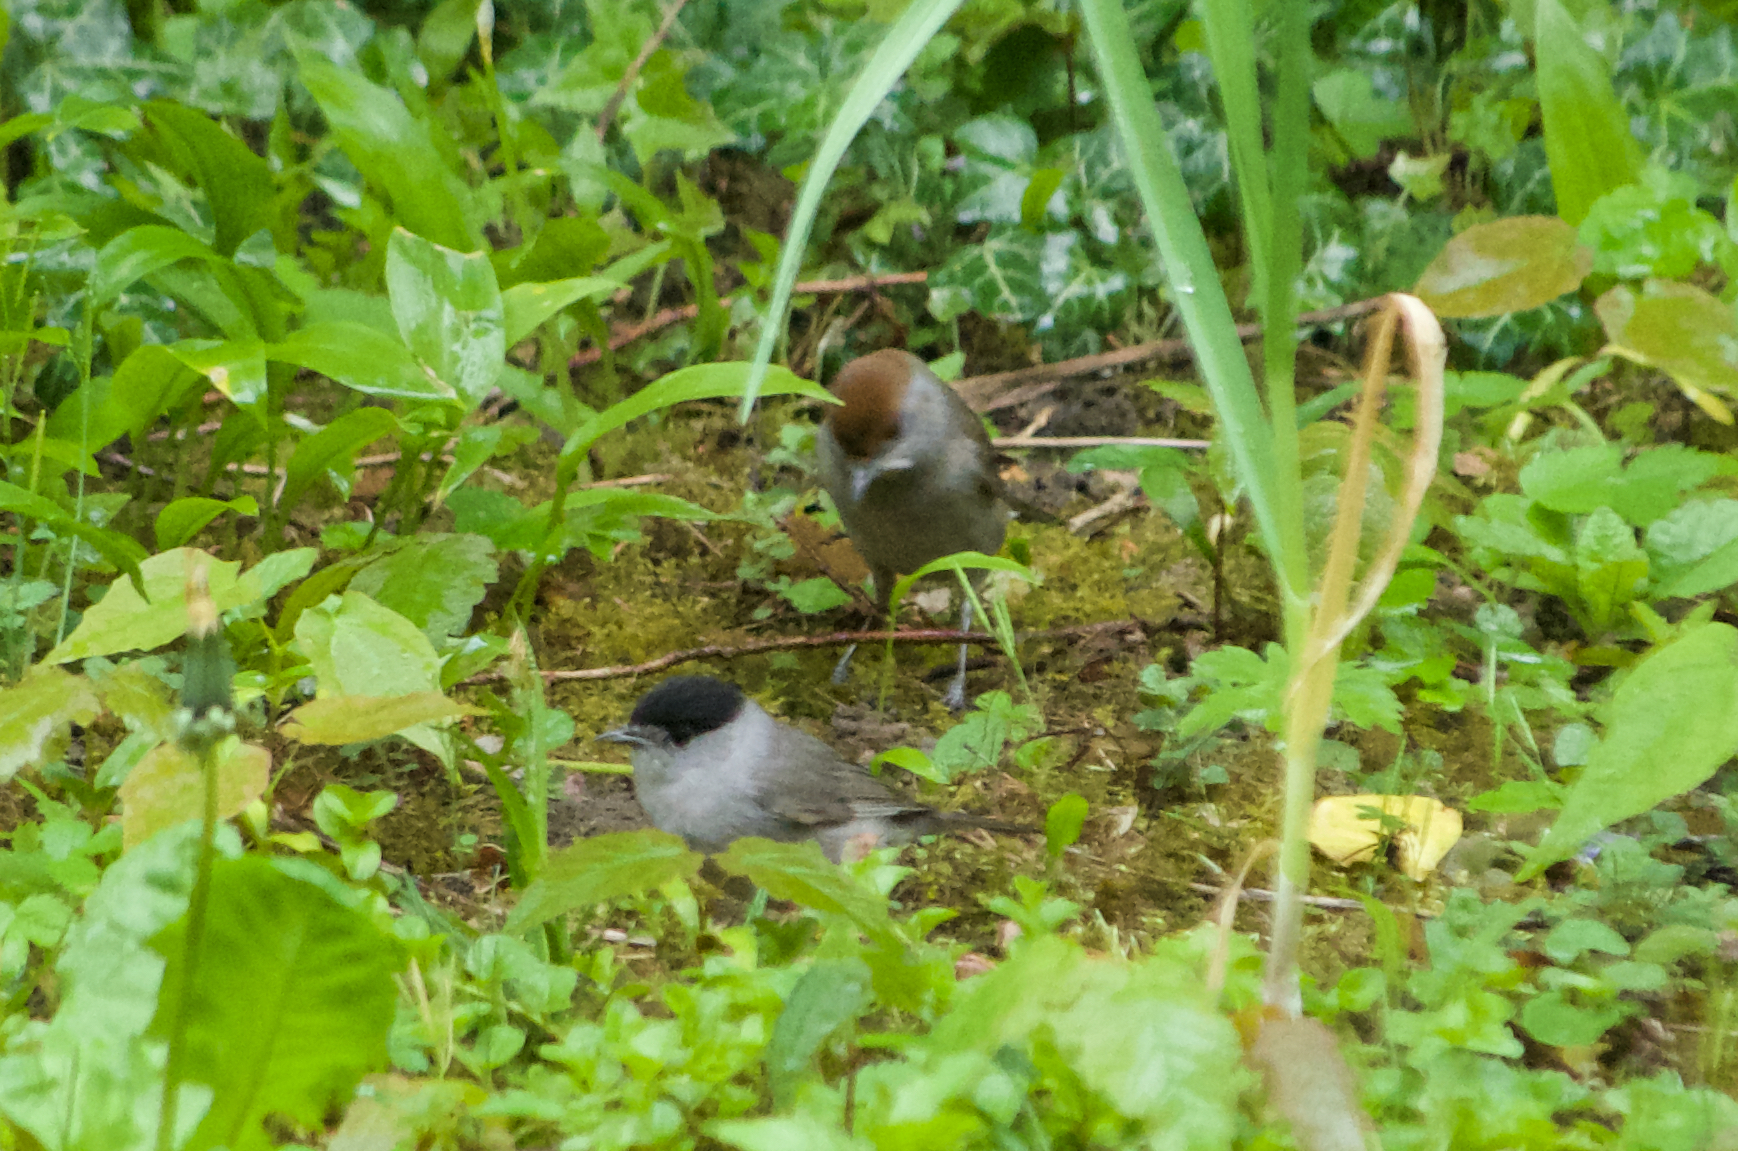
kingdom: Animalia
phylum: Chordata
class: Aves
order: Passeriformes
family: Sylviidae
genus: Sylvia
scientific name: Sylvia atricapilla
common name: Eurasian blackcap
